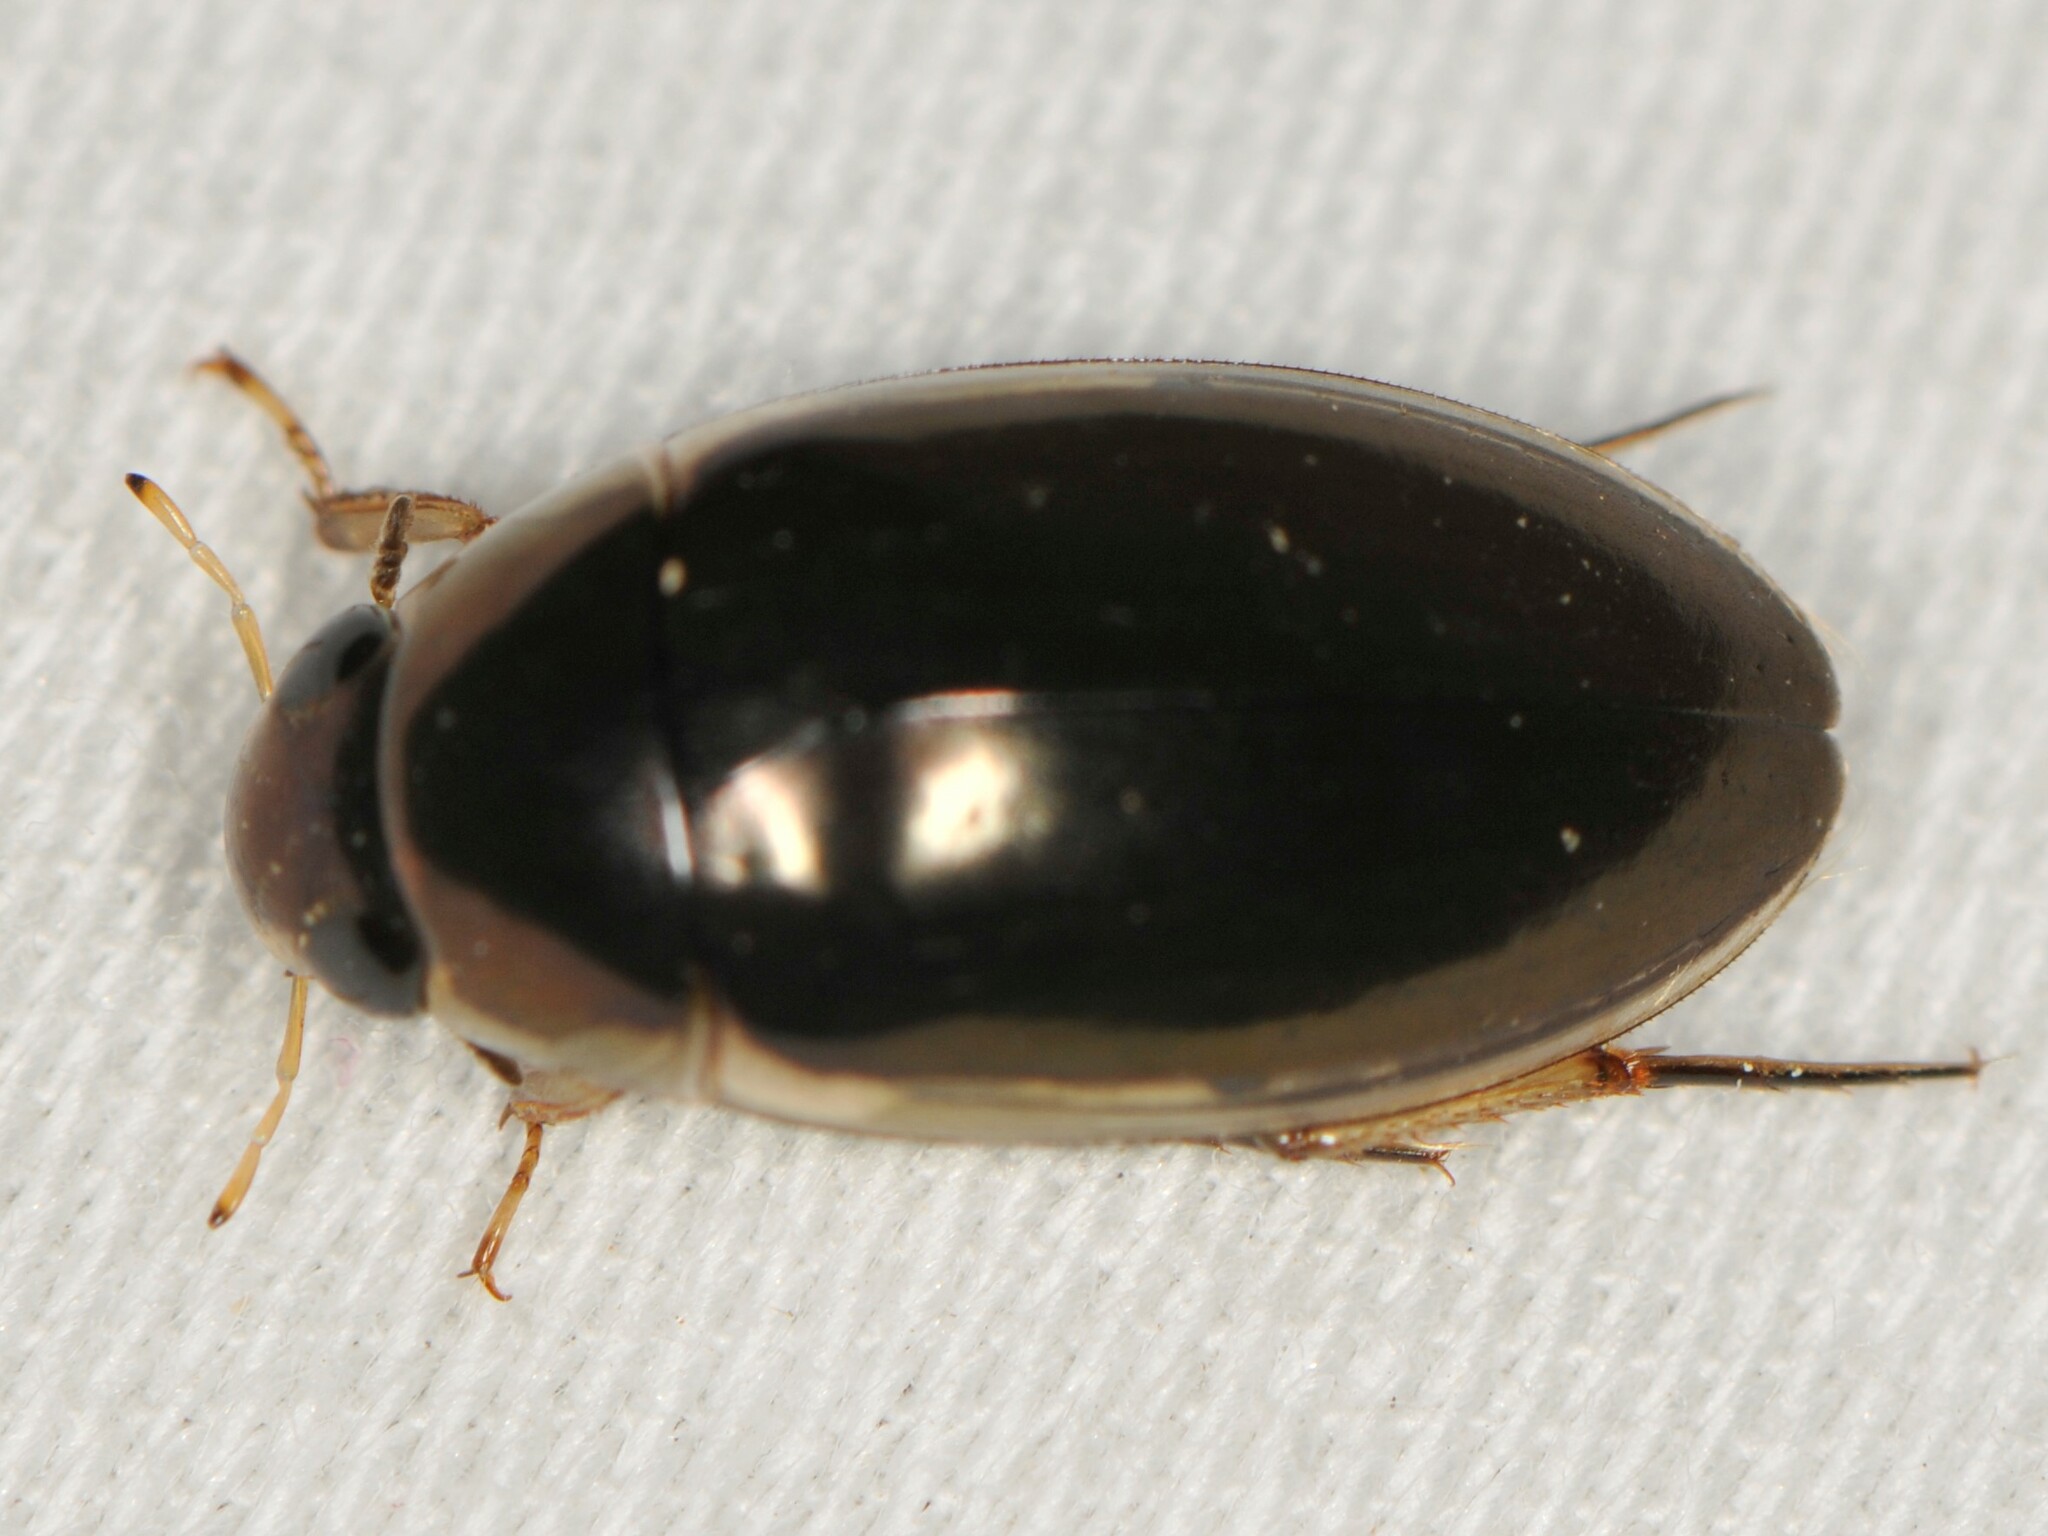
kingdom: Animalia
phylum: Arthropoda
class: Insecta
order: Coleoptera
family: Hydrophilidae
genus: Tropisternus
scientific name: Tropisternus lateralis
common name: Lateral-banded water scavenger beetle
